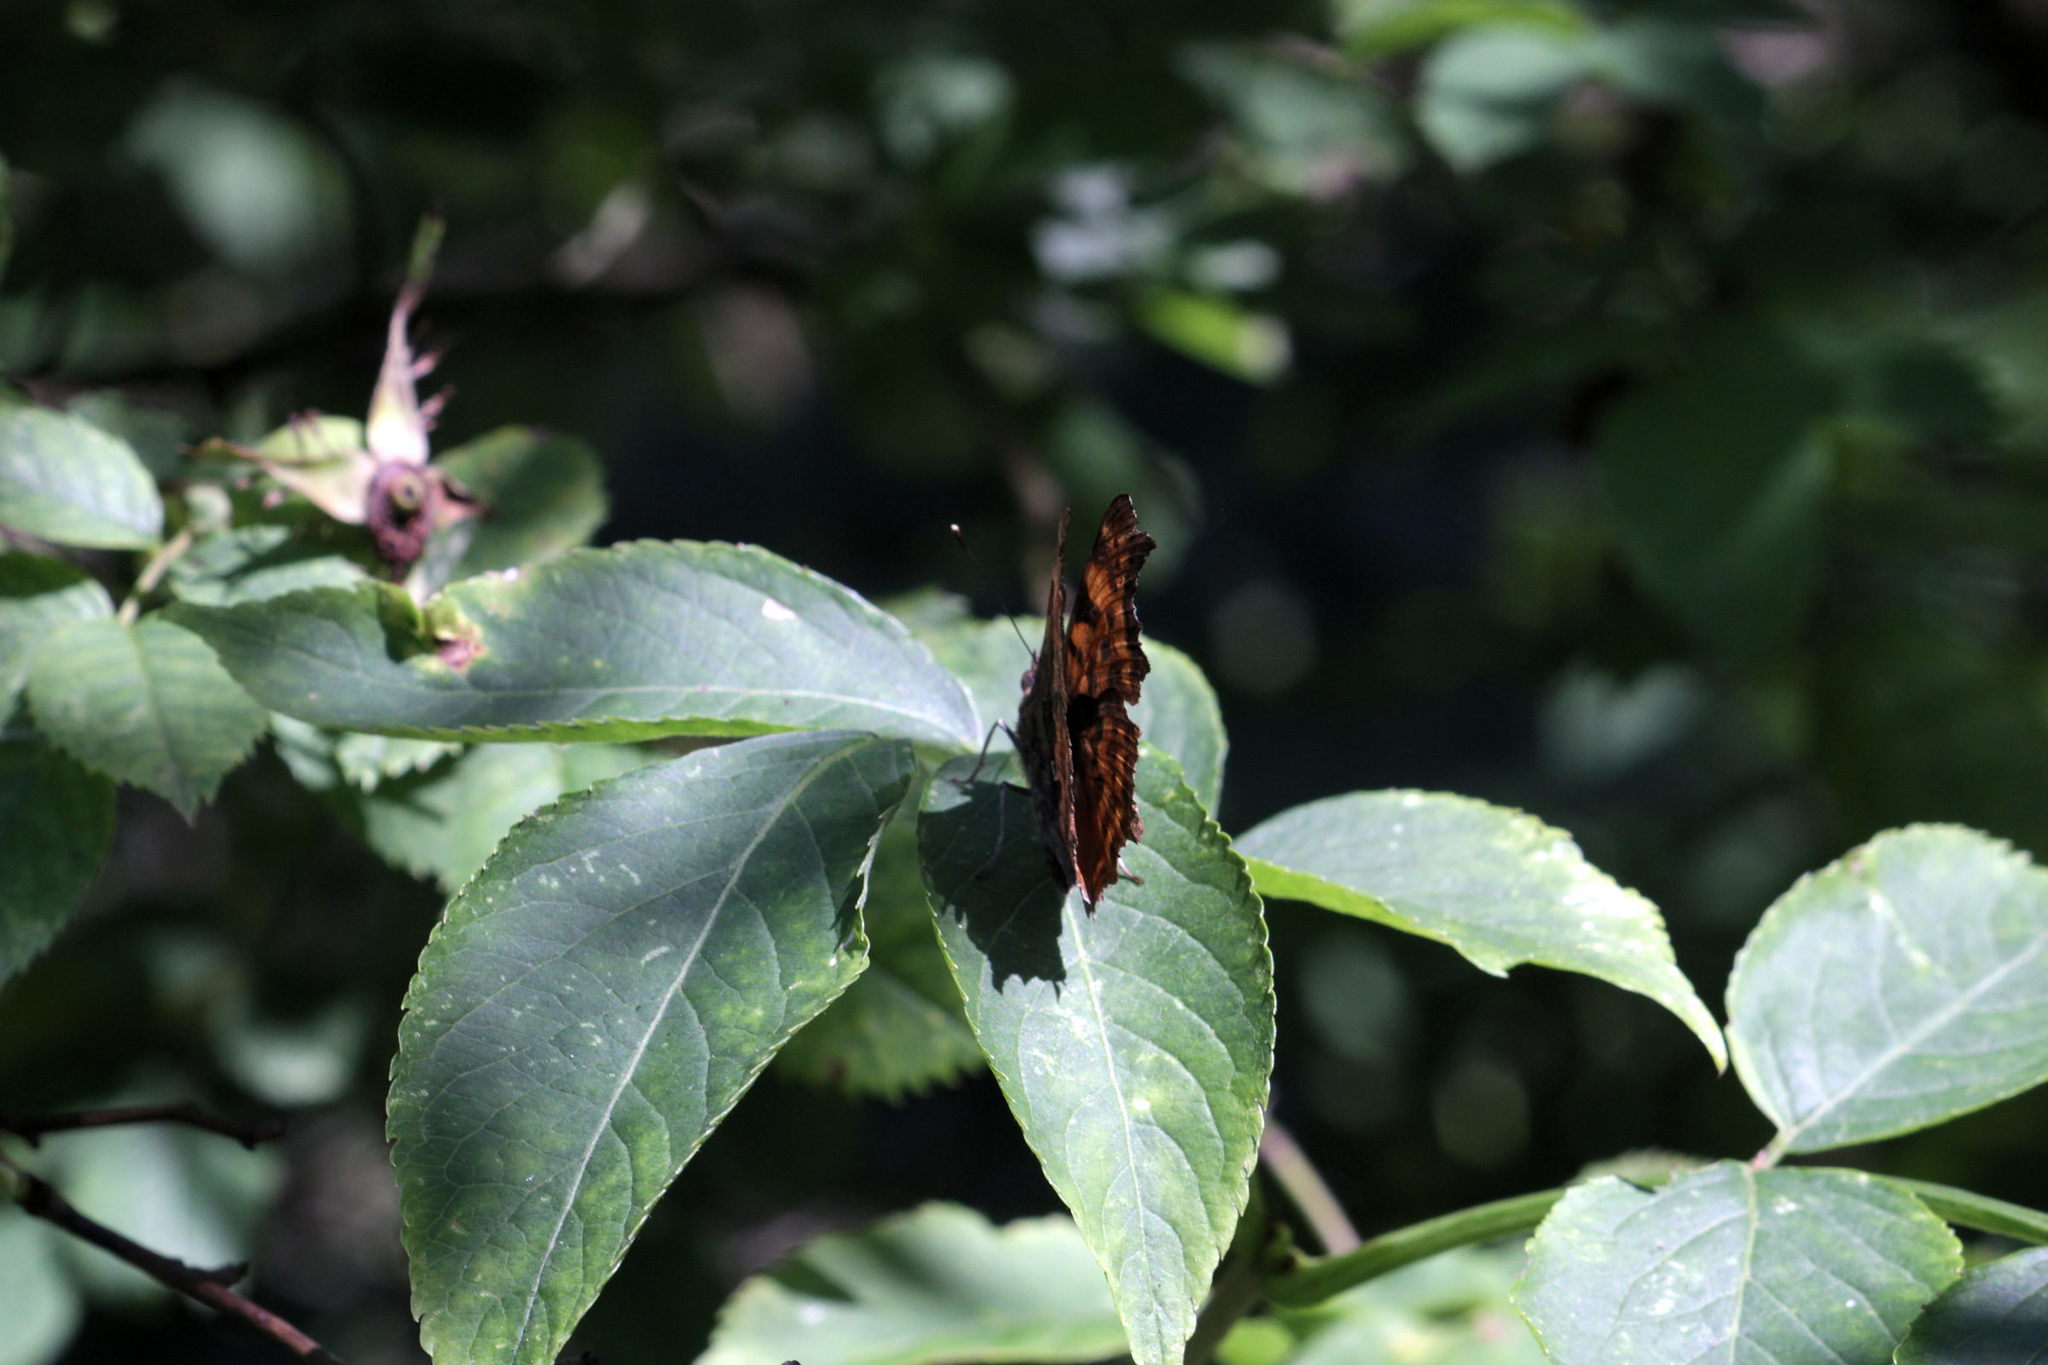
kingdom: Animalia
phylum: Arthropoda
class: Insecta
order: Lepidoptera
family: Nymphalidae
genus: Polygonia
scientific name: Polygonia c-album
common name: Comma
